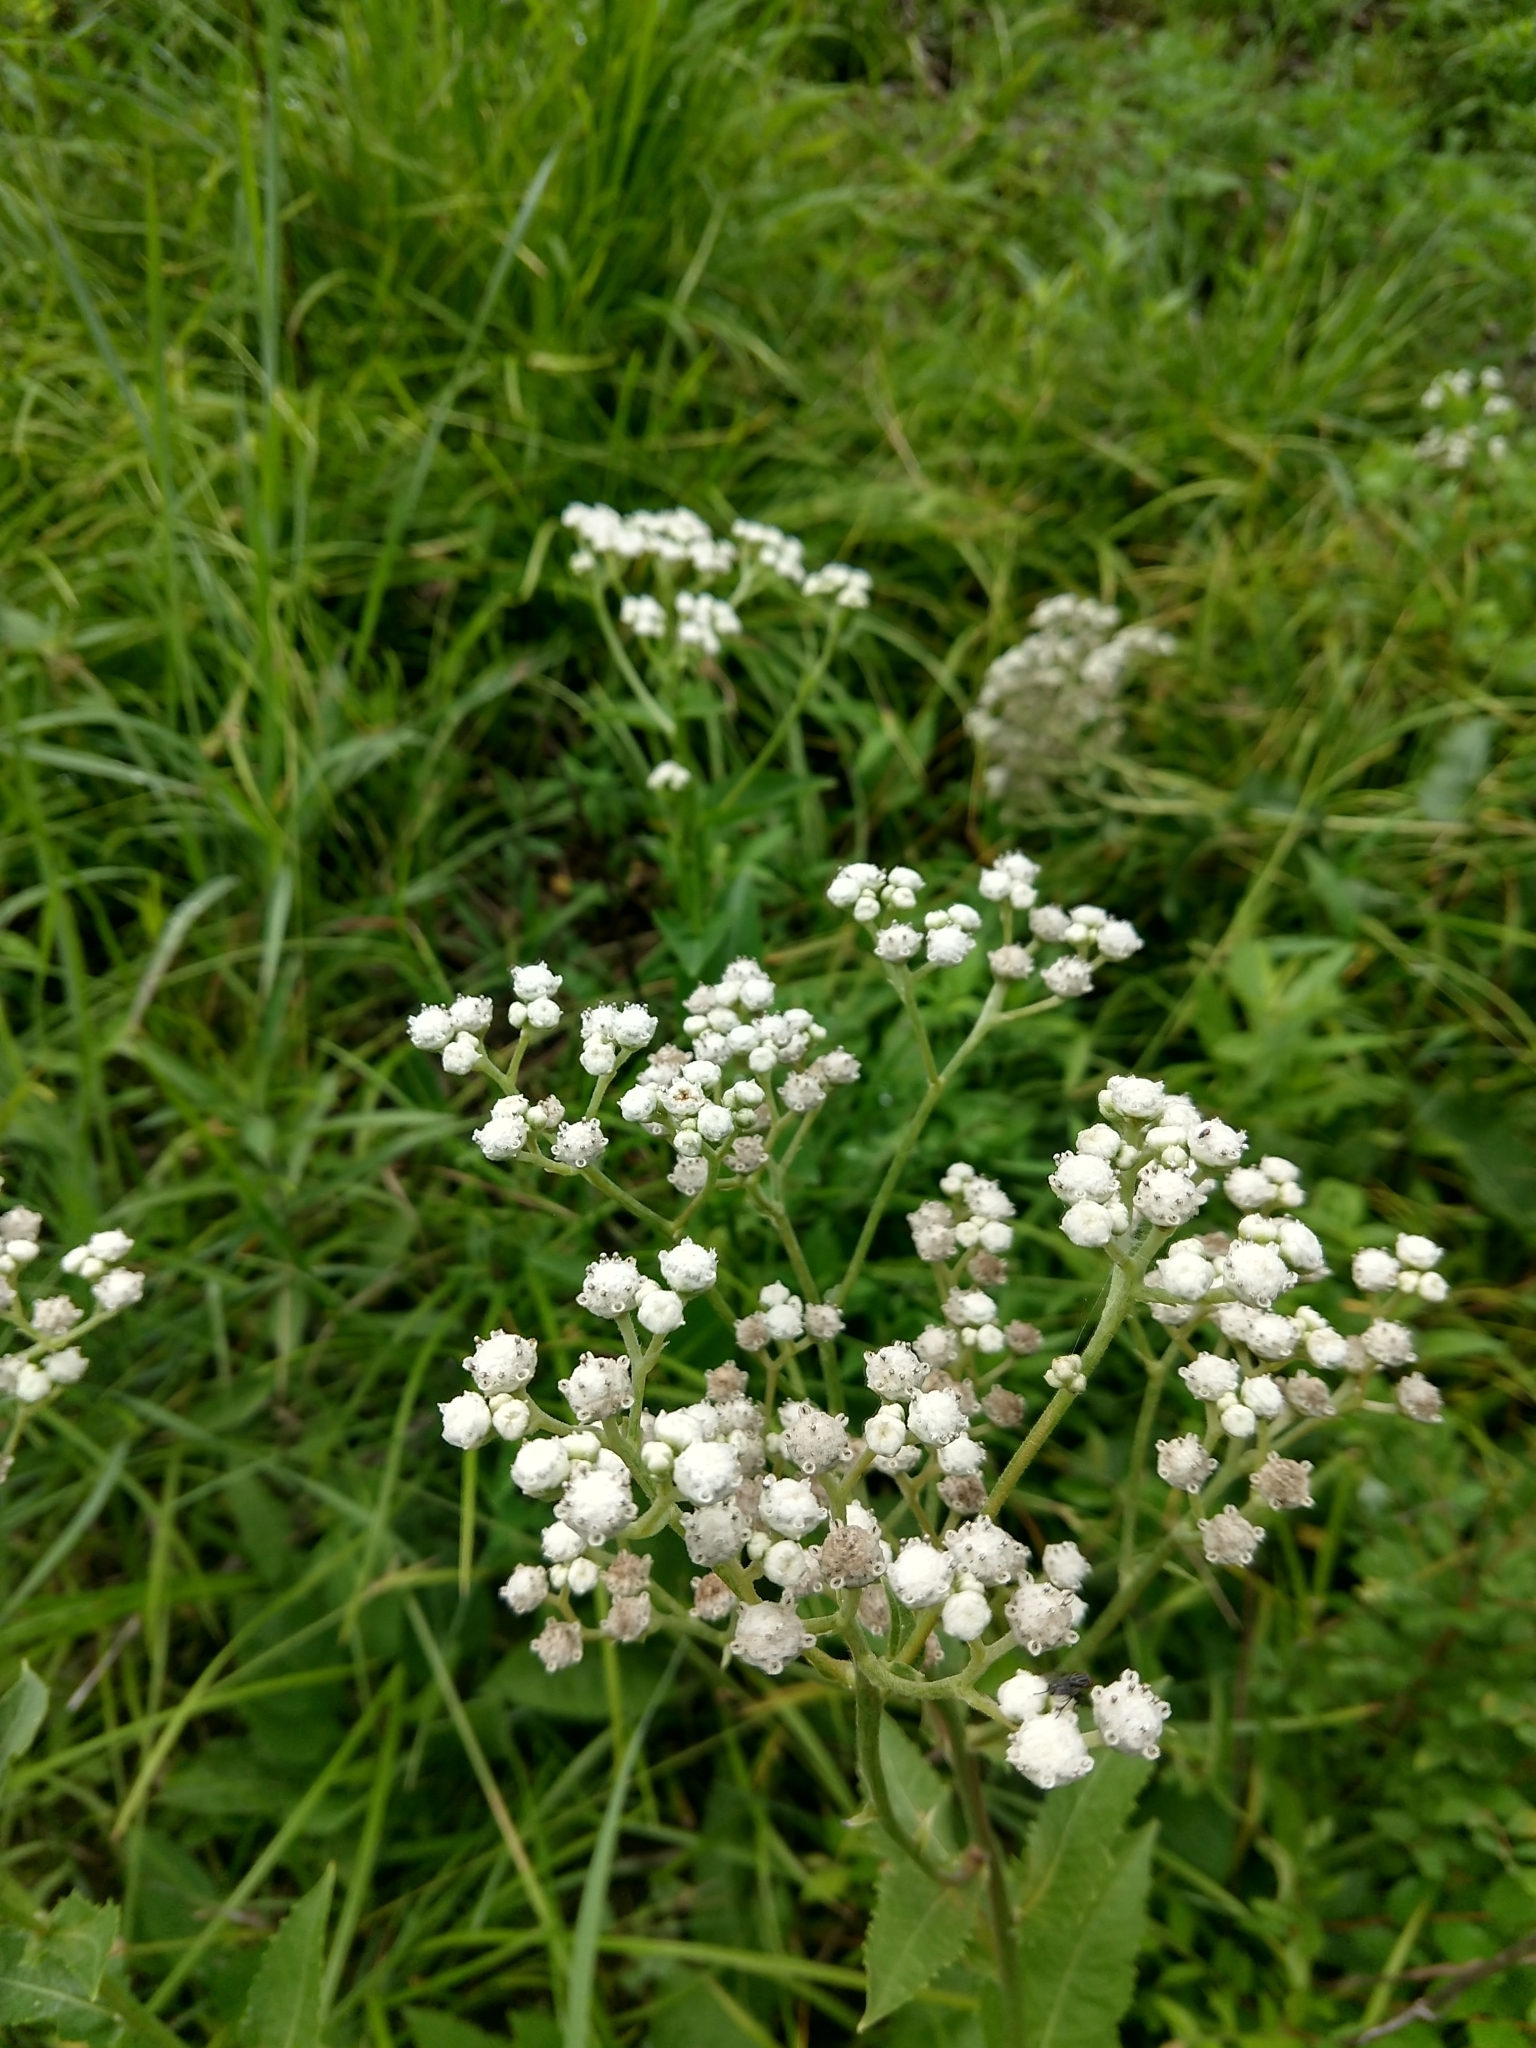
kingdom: Plantae
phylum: Tracheophyta
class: Magnoliopsida
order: Asterales
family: Asteraceae
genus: Parthenium
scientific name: Parthenium integrifolium
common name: American feverfew
